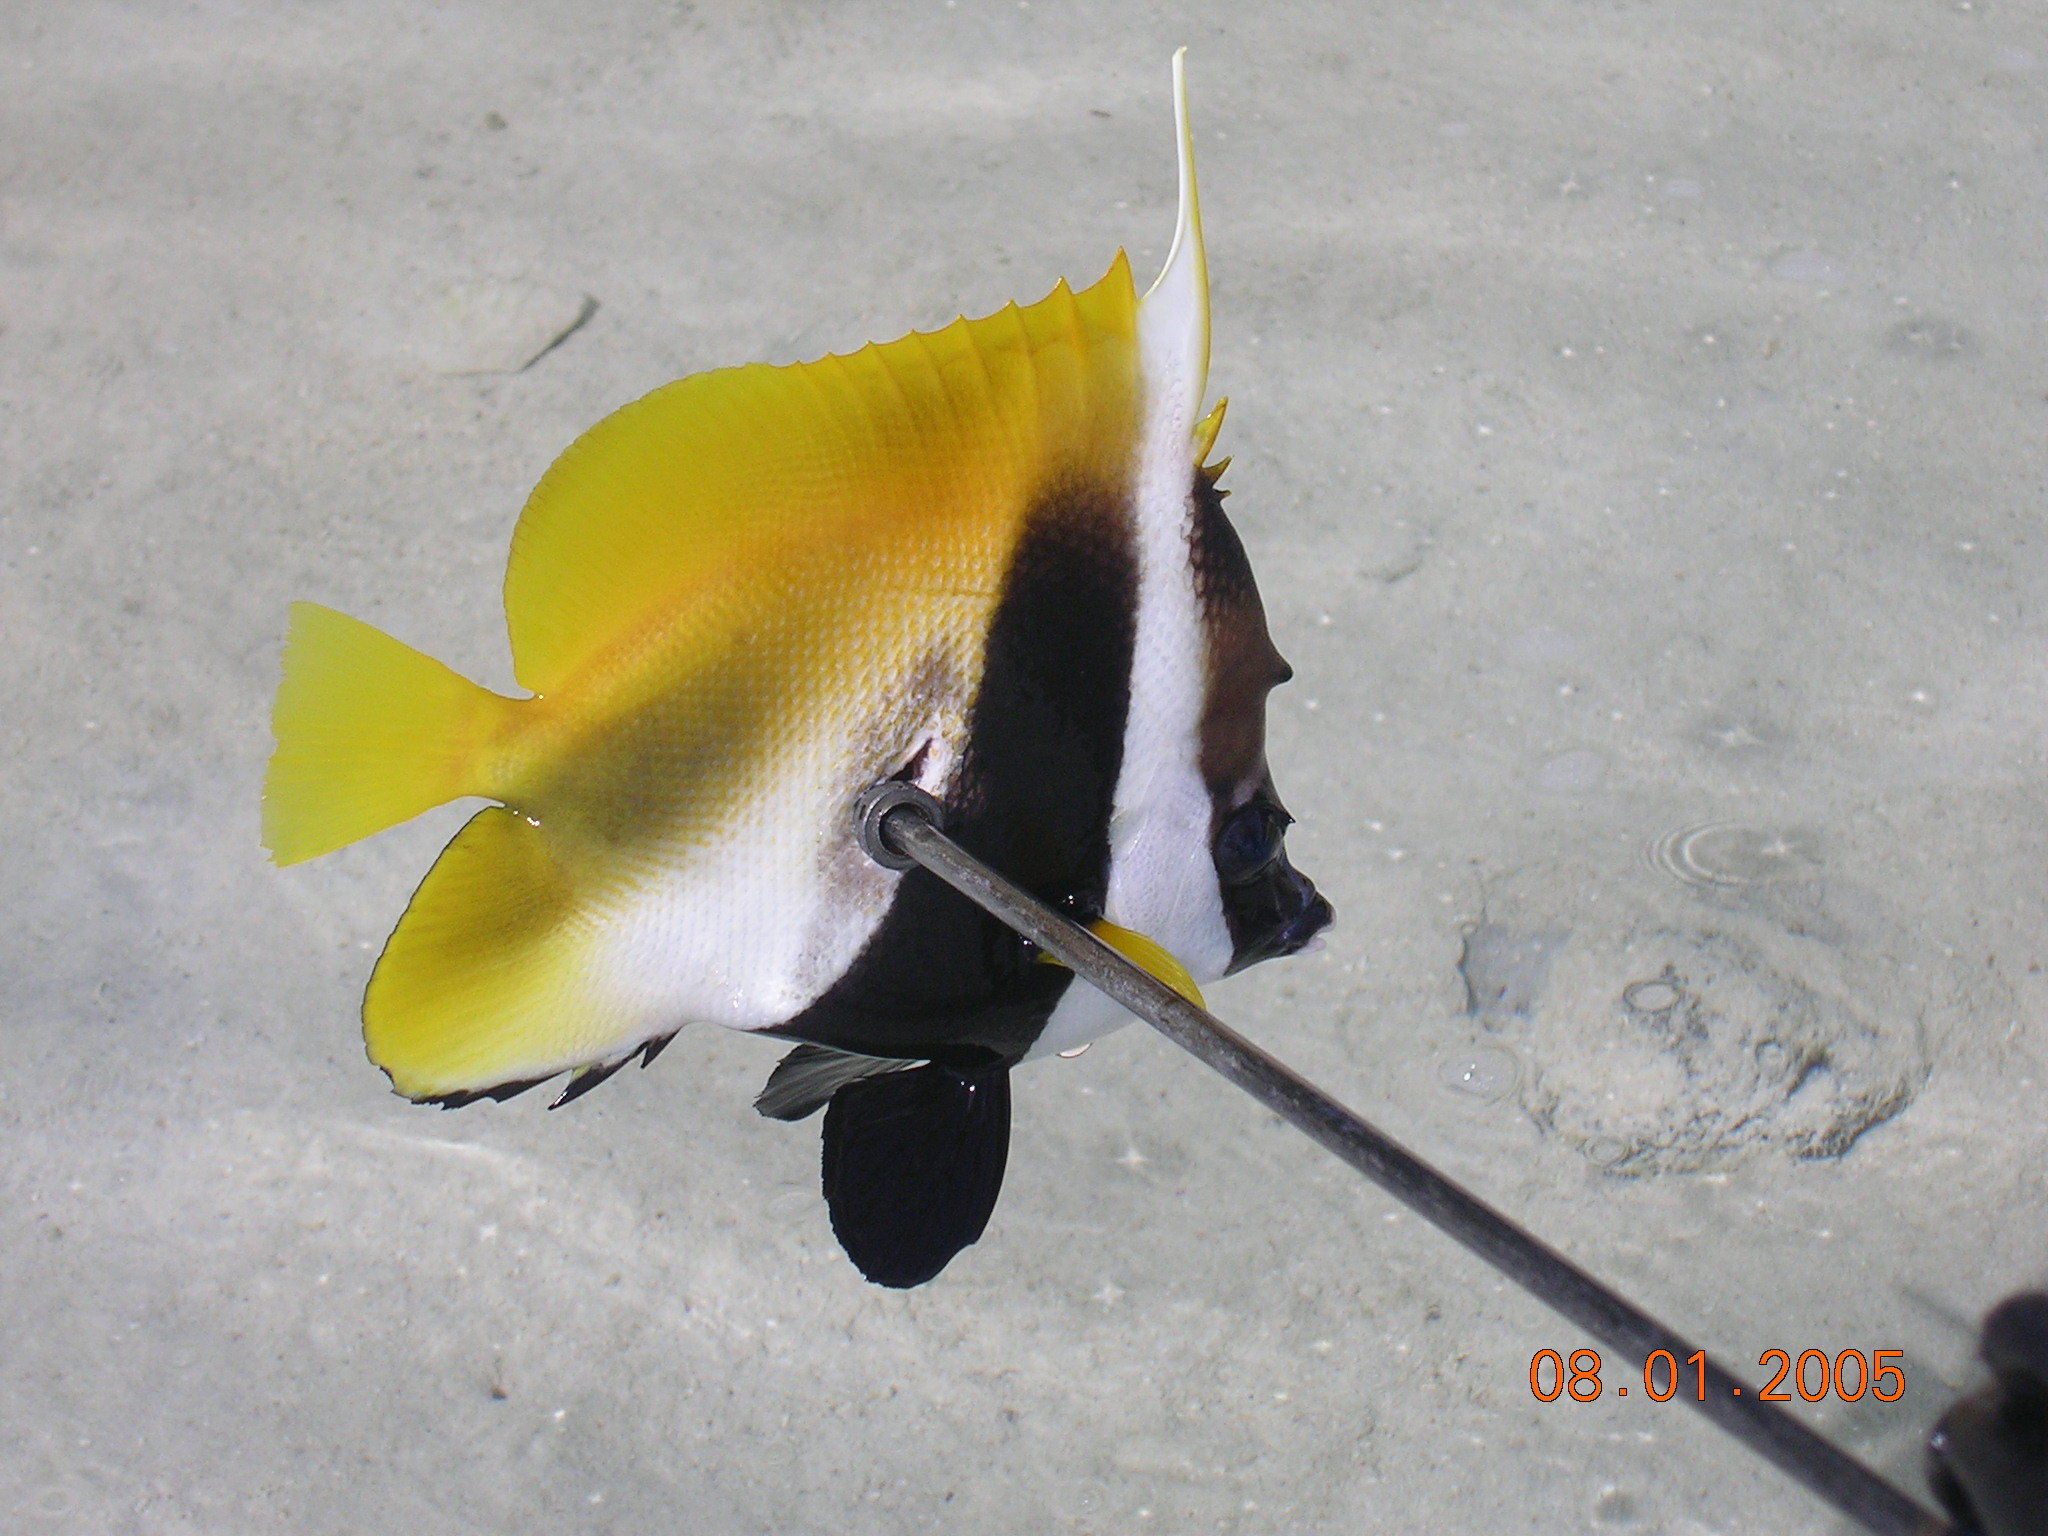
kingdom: Animalia
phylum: Chordata
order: Perciformes
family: Chaetodontidae
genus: Heniochus
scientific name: Heniochus monoceros
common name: Masked bannerfish
